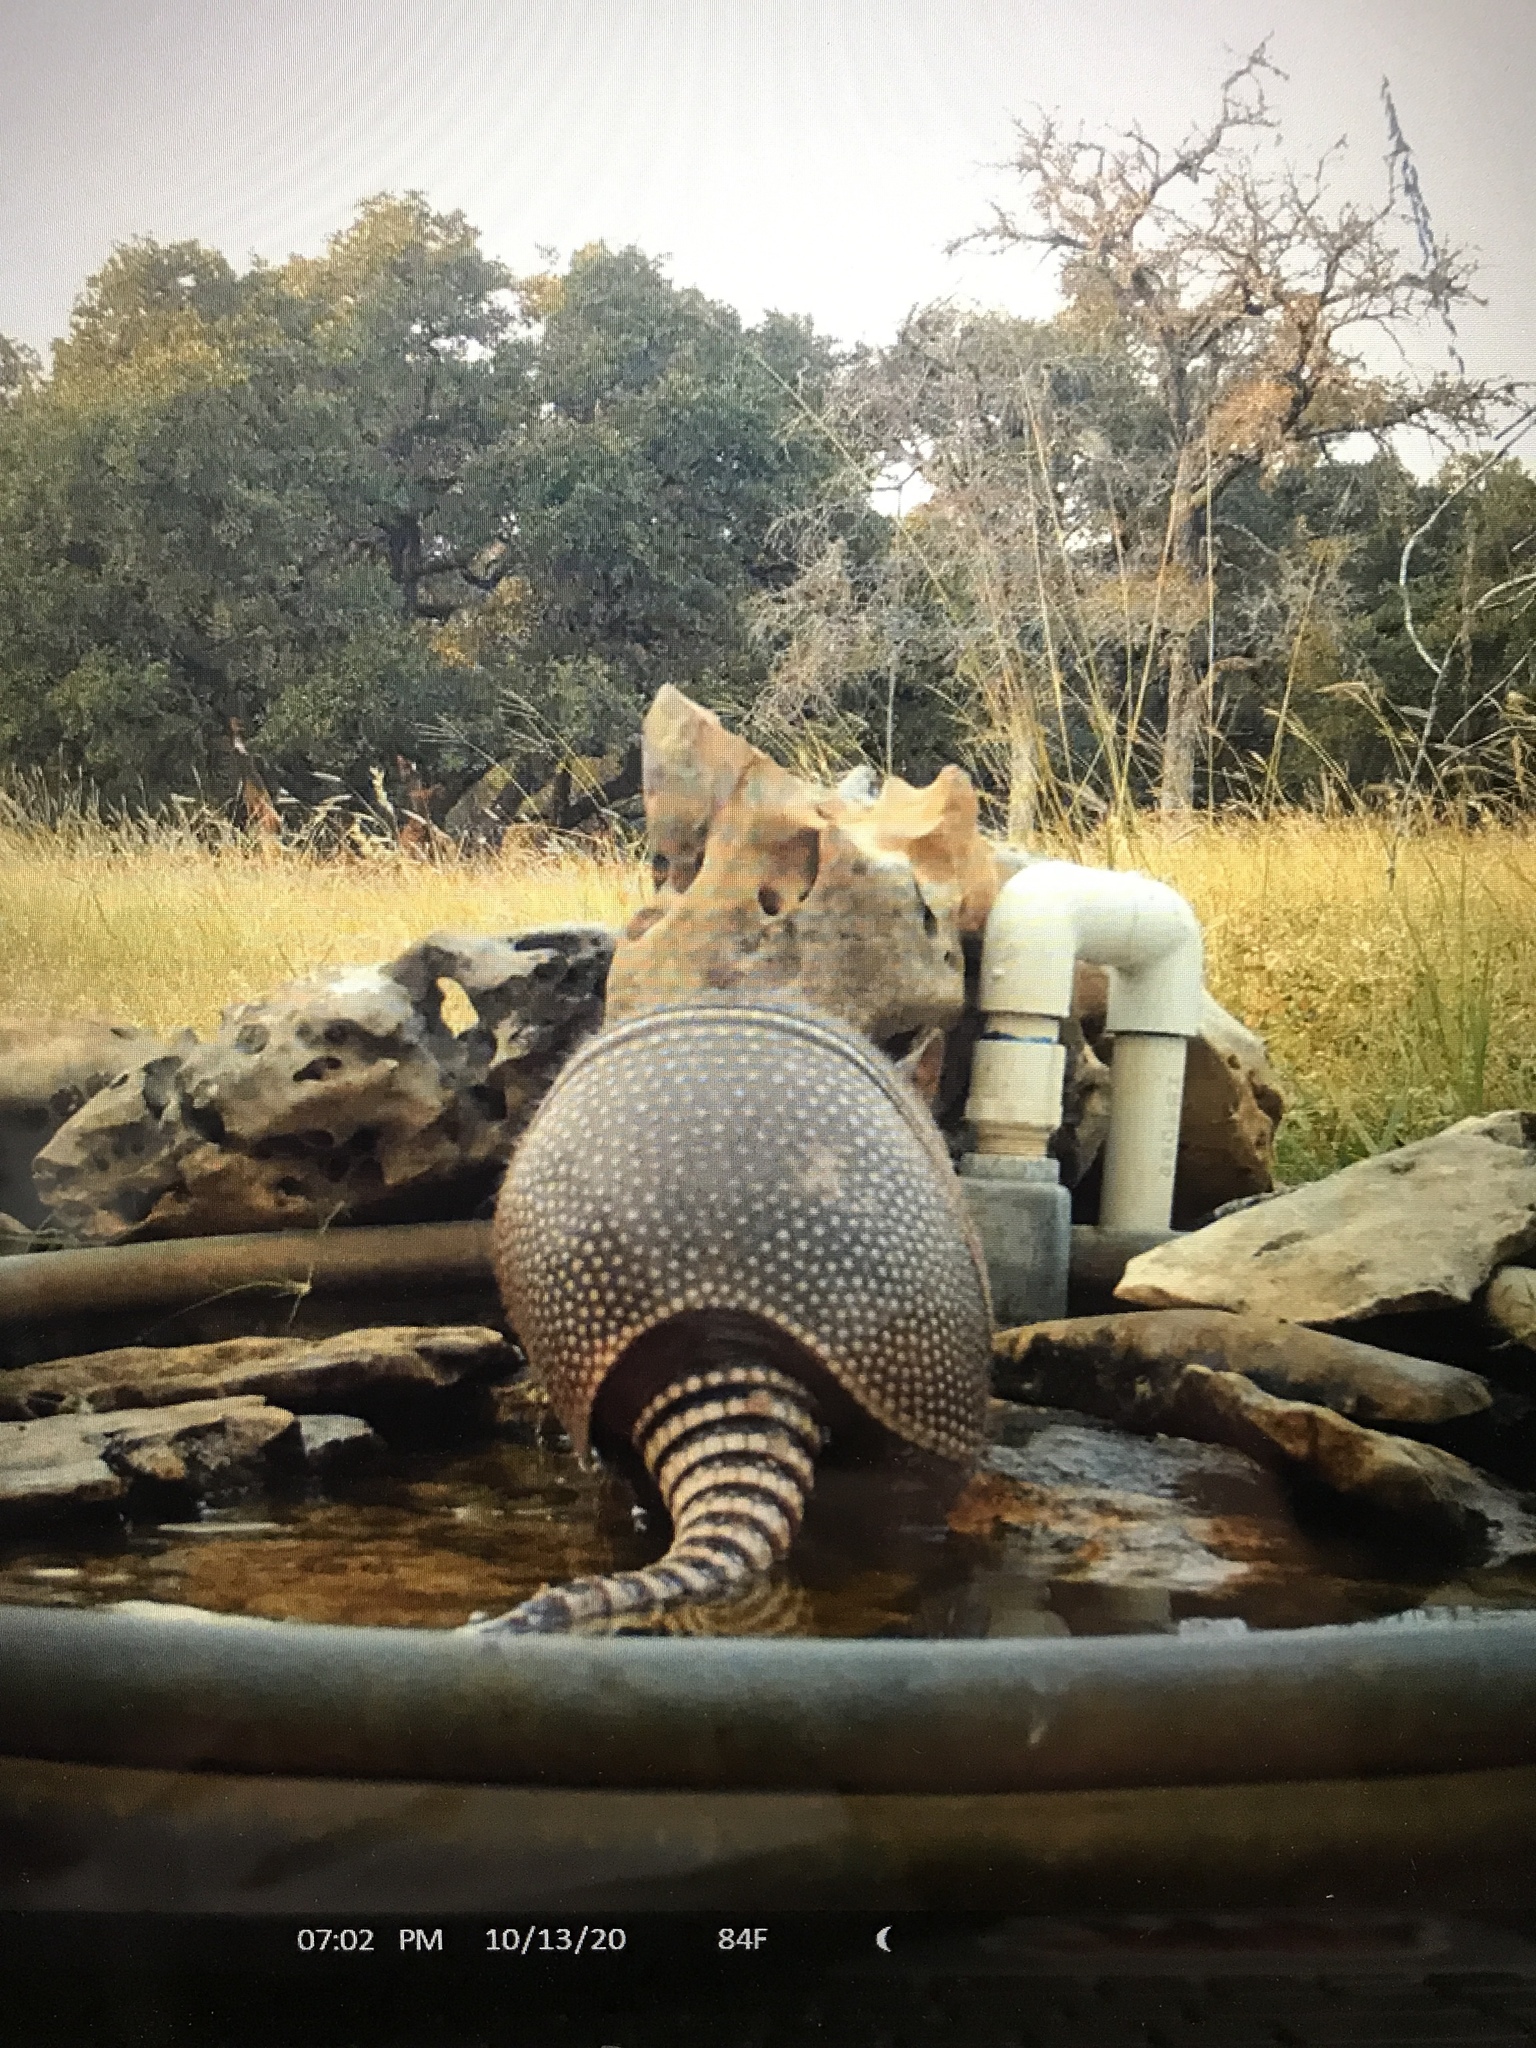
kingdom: Animalia
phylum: Chordata
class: Mammalia
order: Cingulata
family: Dasypodidae
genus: Dasypus
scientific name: Dasypus novemcinctus
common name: Nine-banded armadillo
